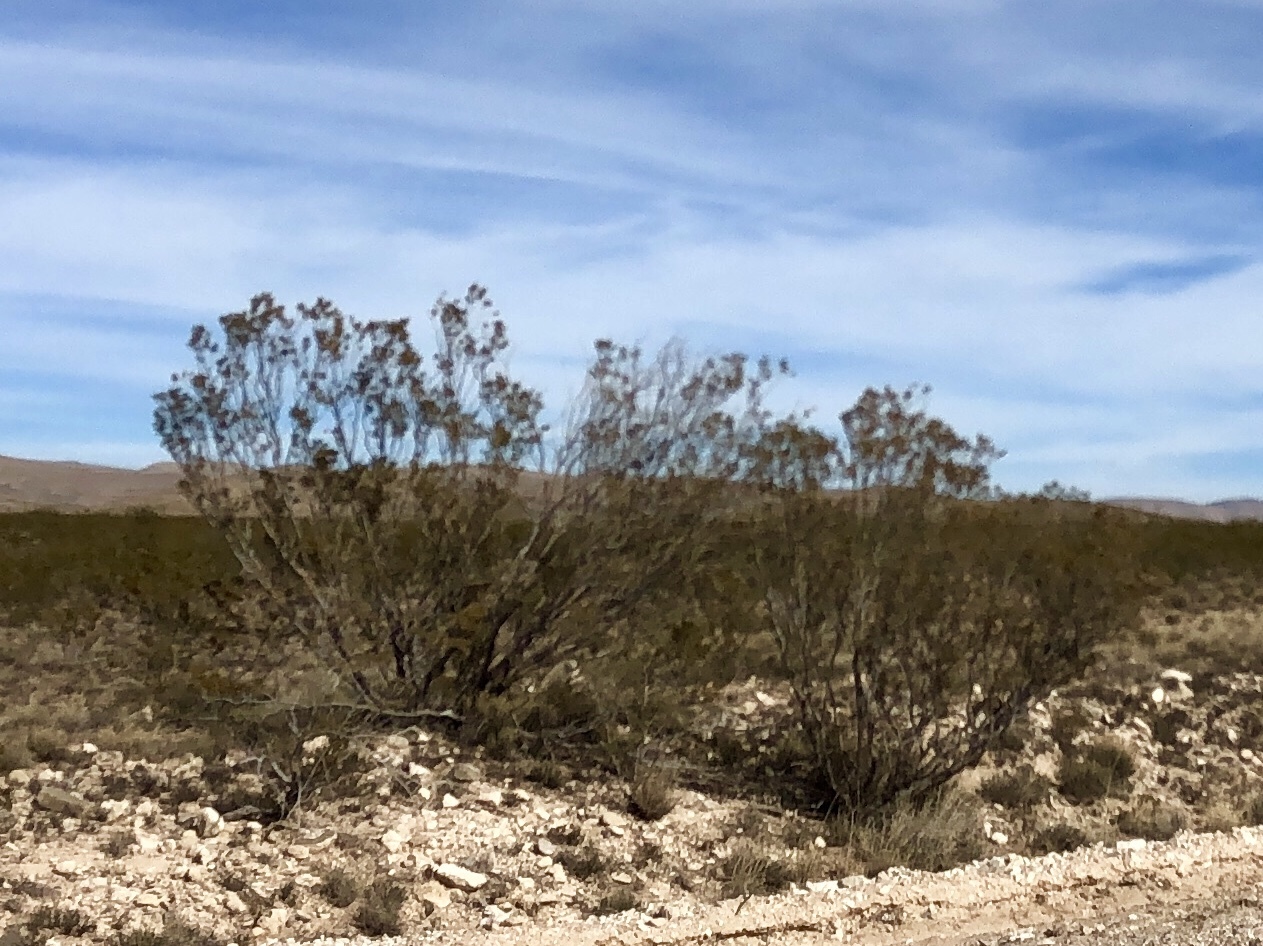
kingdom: Plantae
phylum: Tracheophyta
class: Magnoliopsida
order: Zygophyllales
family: Zygophyllaceae
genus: Larrea
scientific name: Larrea tridentata
